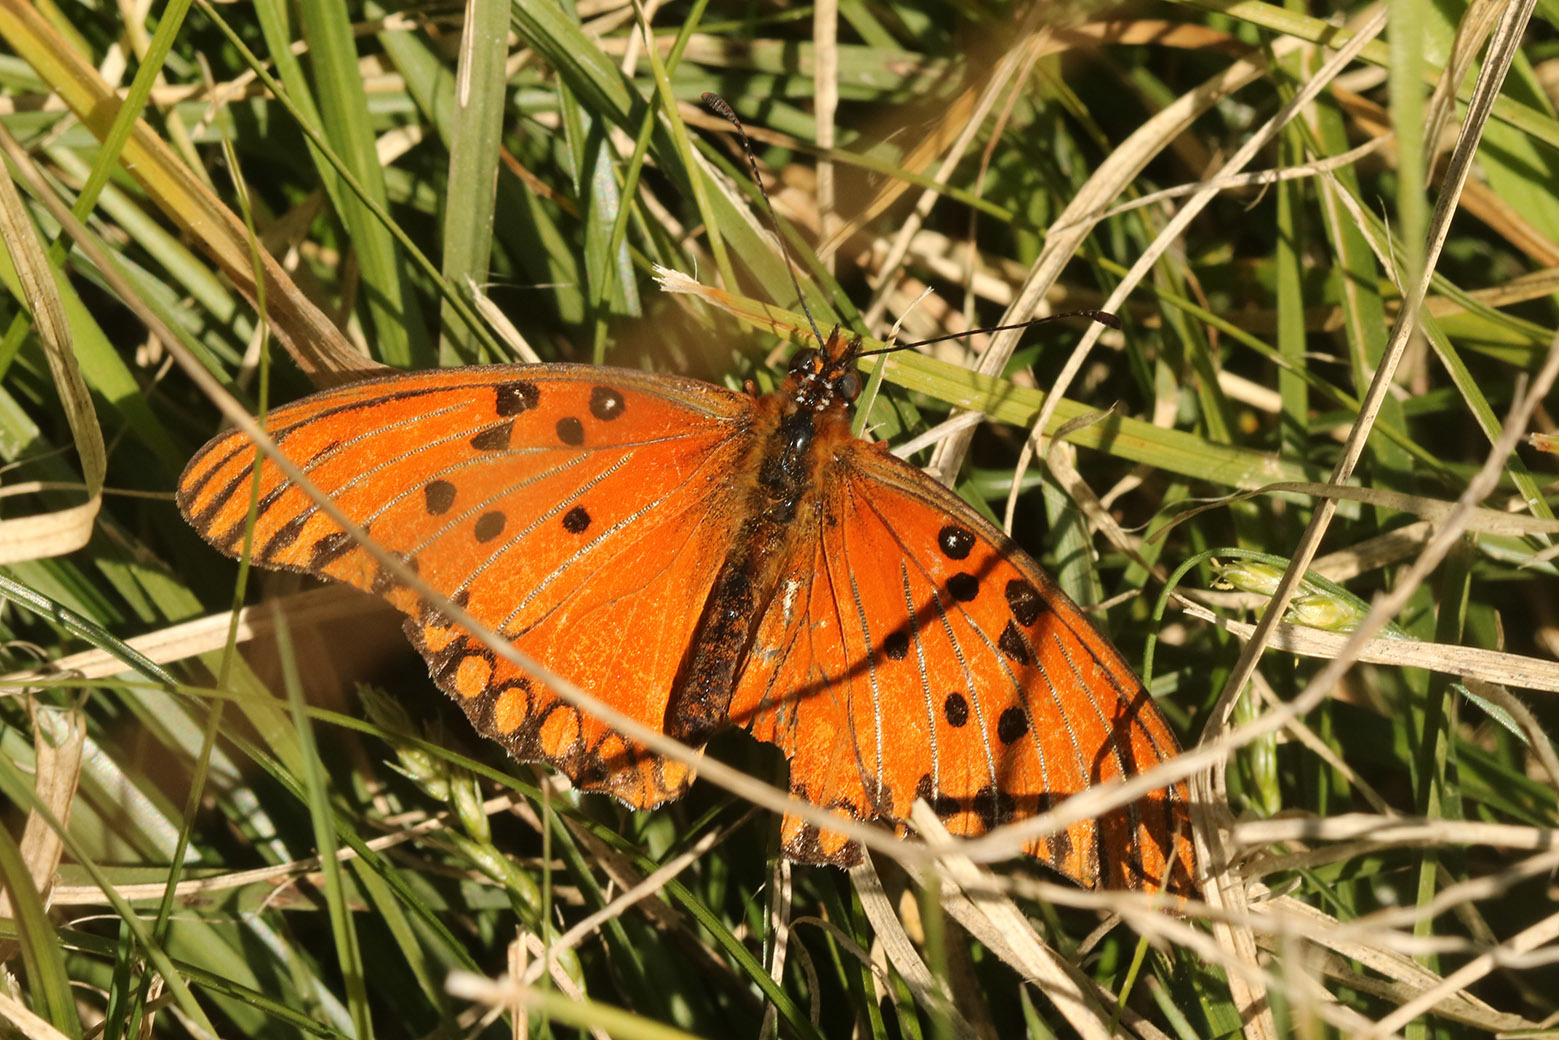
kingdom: Animalia
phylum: Arthropoda
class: Insecta
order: Lepidoptera
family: Nymphalidae
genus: Dione
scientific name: Dione vanillae
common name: Gulf fritillary
